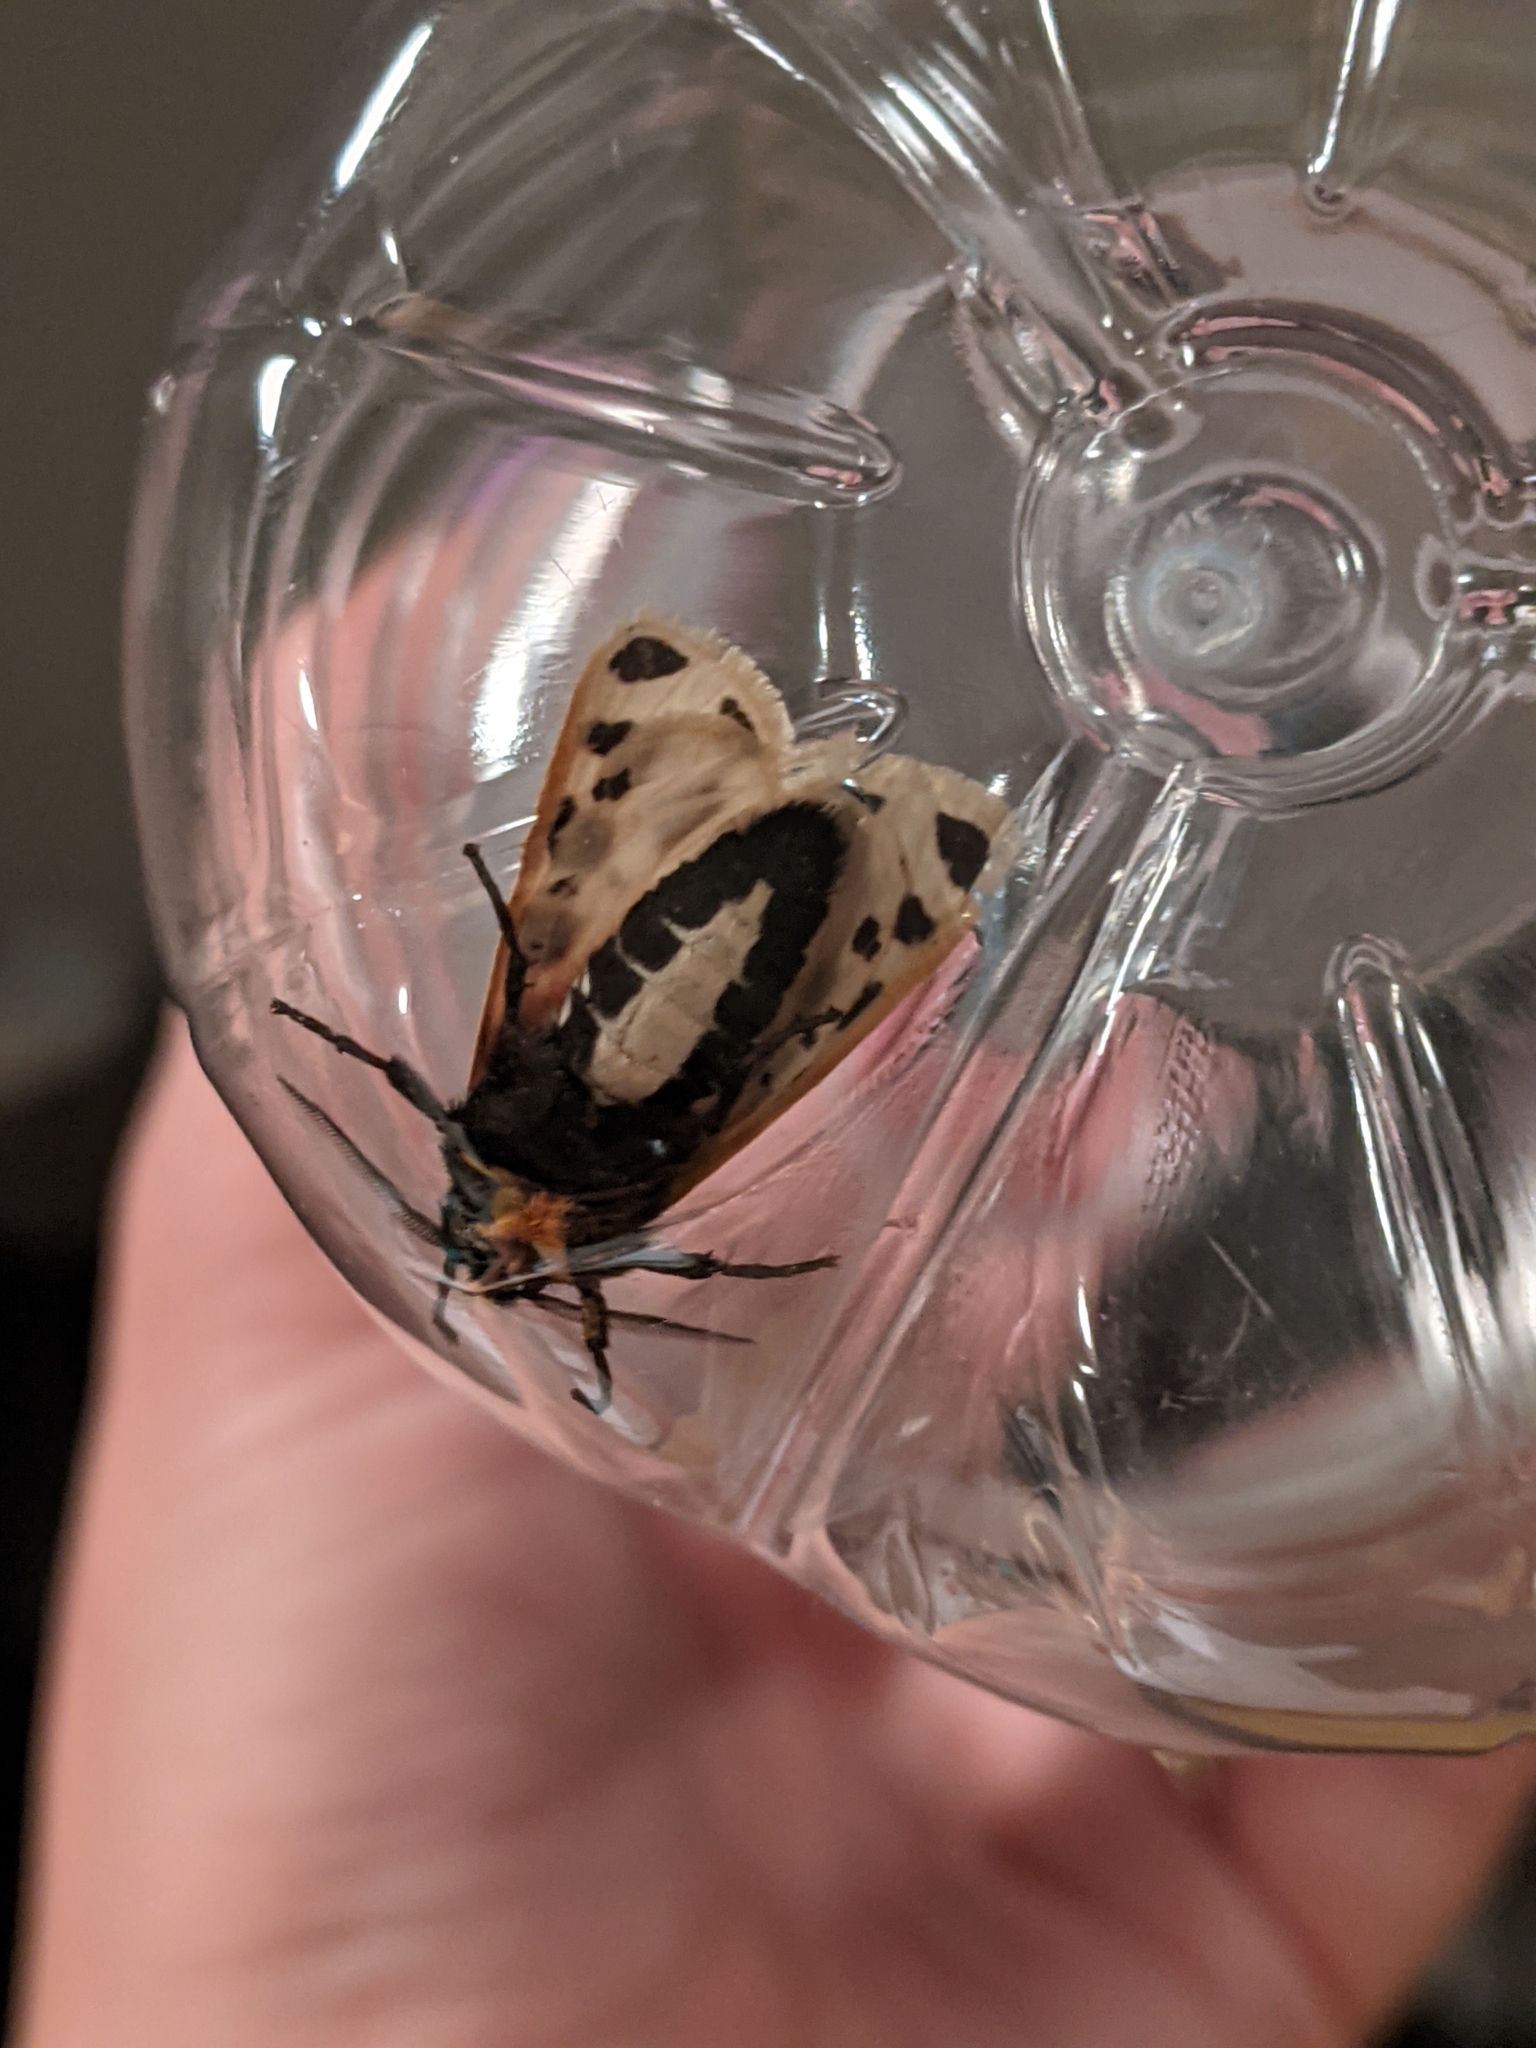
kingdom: Animalia
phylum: Arthropoda
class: Insecta
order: Lepidoptera
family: Erebidae
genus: Apantesis
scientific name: Apantesis
